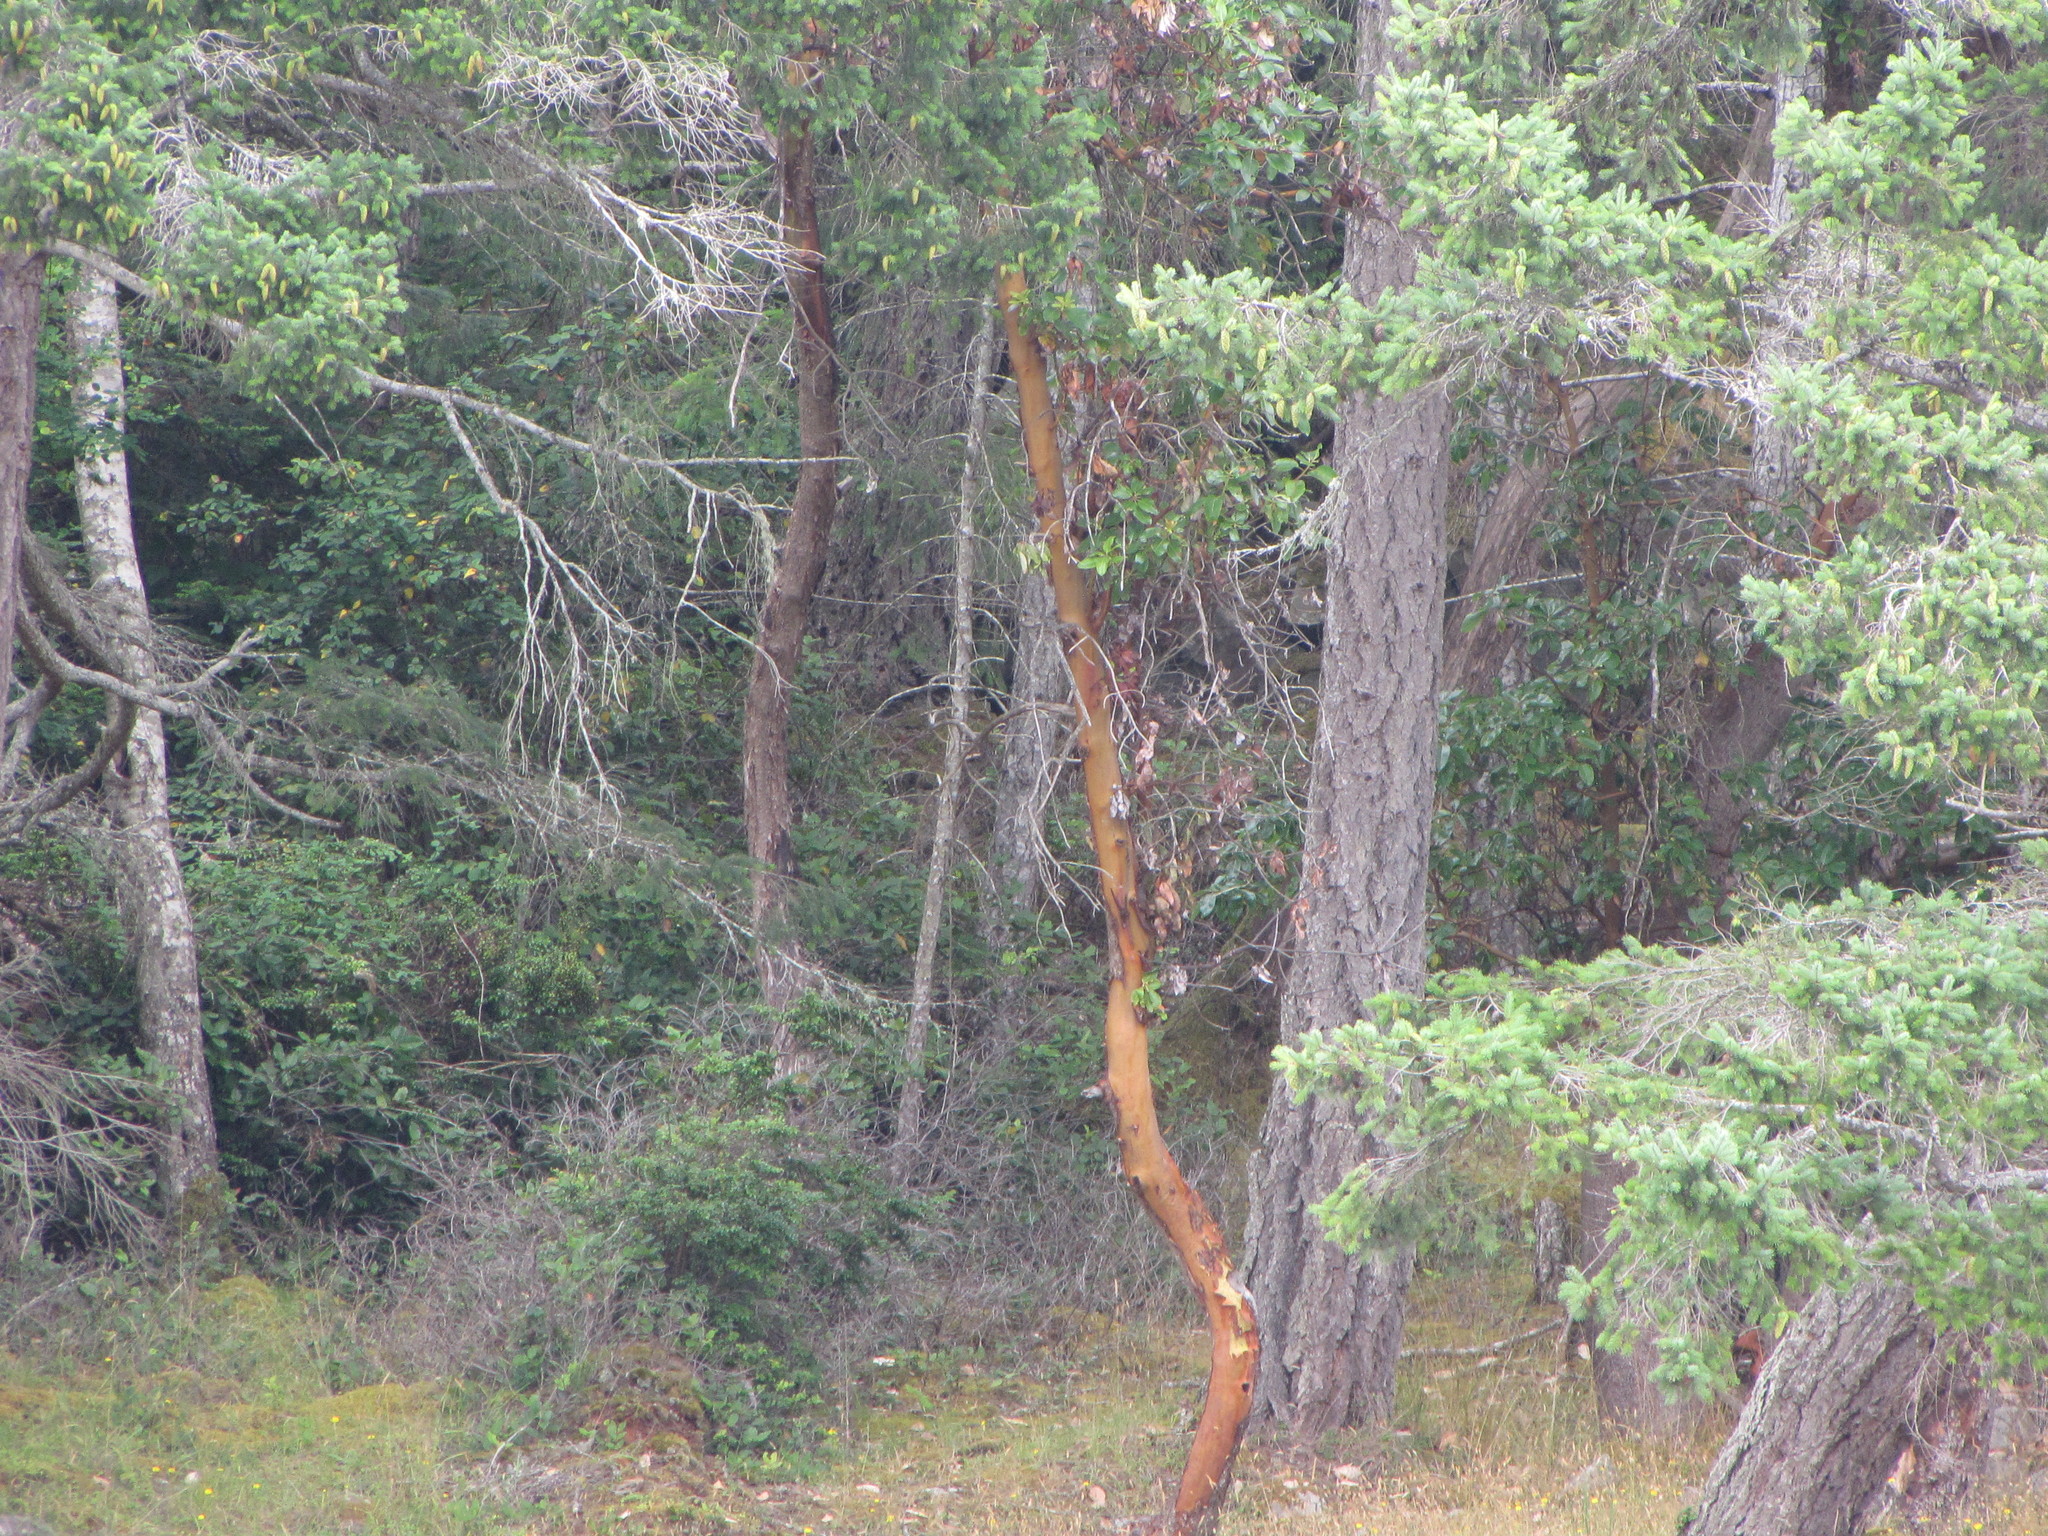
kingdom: Plantae
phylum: Tracheophyta
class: Magnoliopsida
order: Ericales
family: Ericaceae
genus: Arbutus
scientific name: Arbutus menziesii
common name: Pacific madrone
